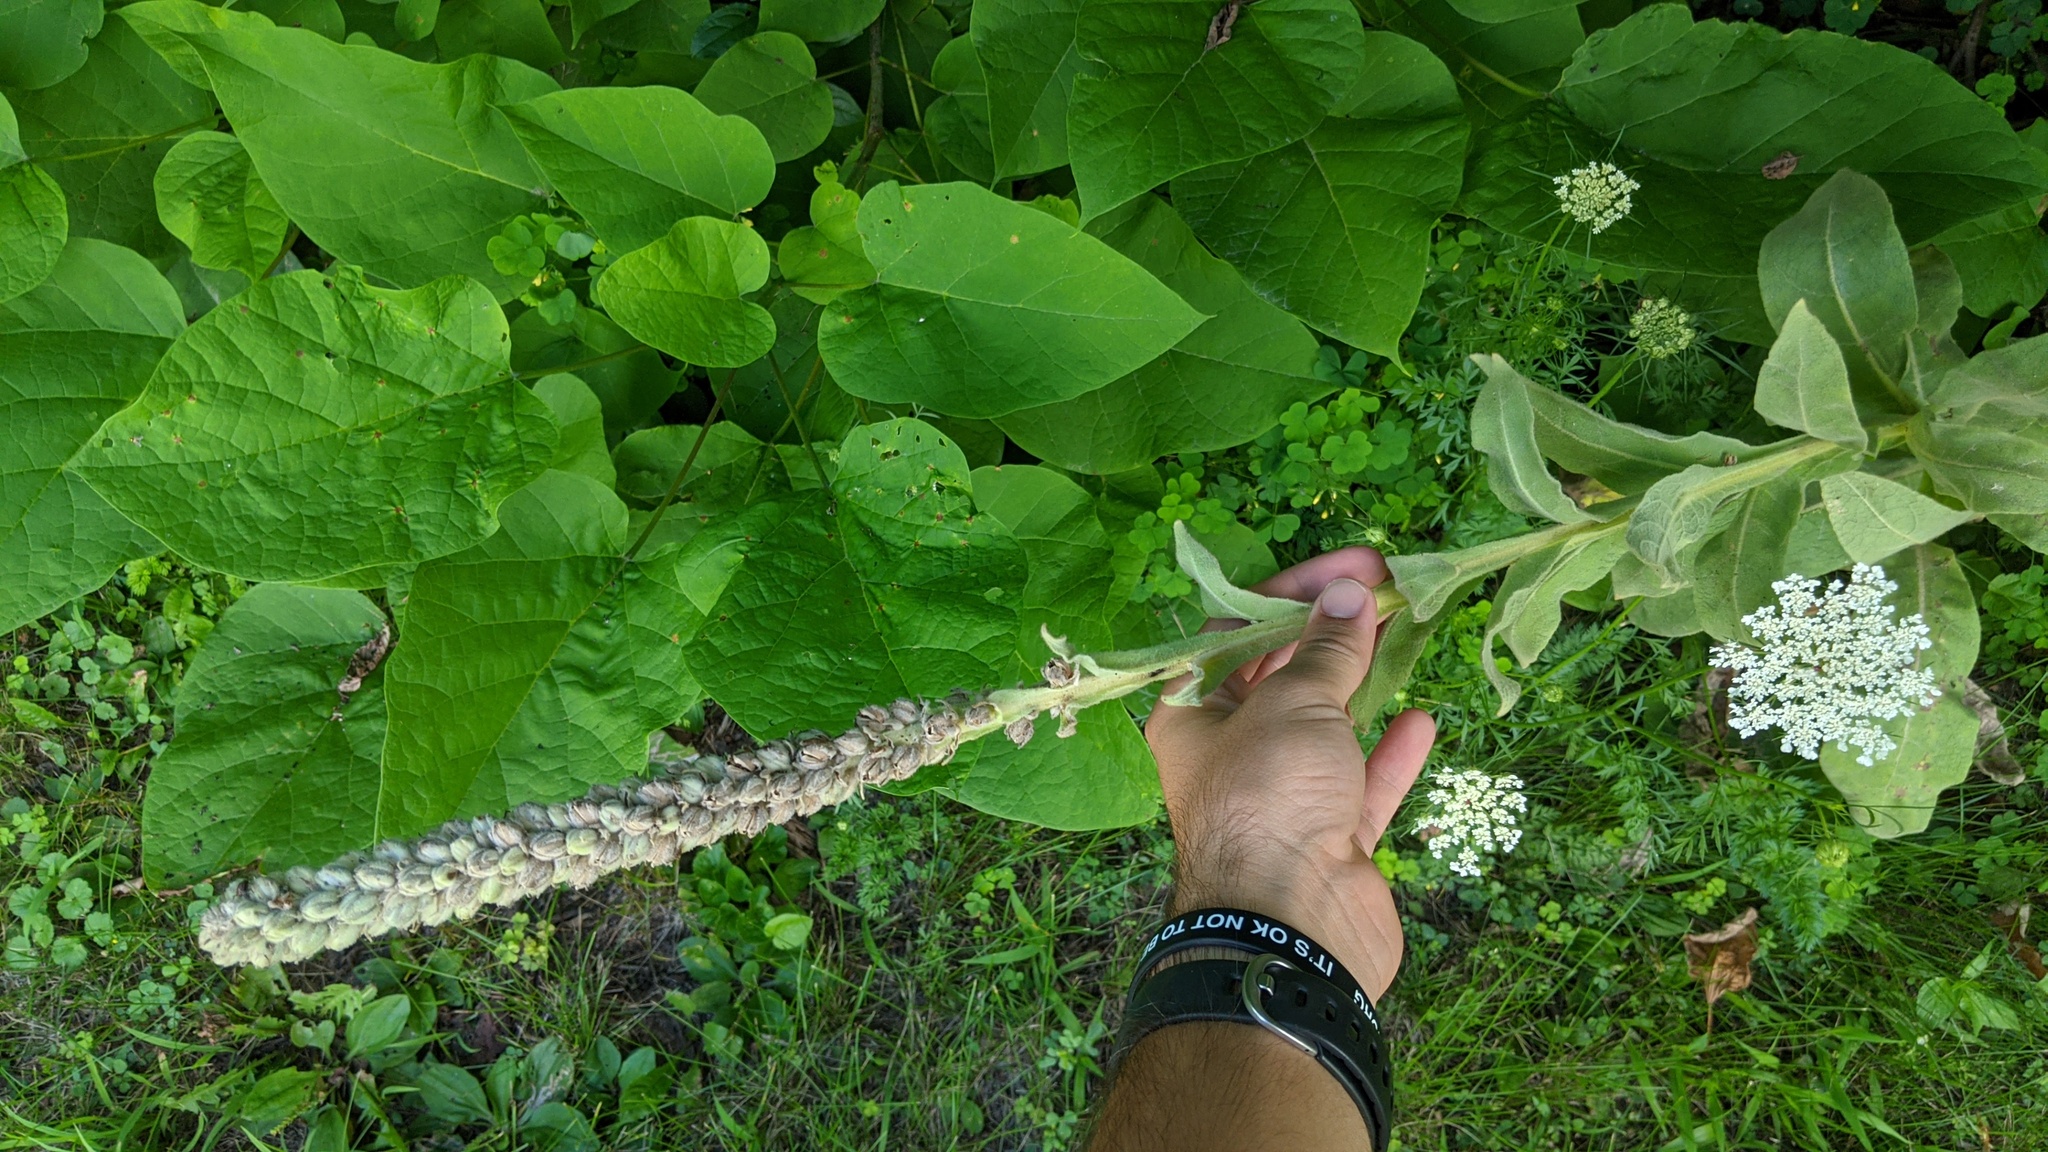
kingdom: Plantae
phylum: Tracheophyta
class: Magnoliopsida
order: Lamiales
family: Scrophulariaceae
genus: Verbascum
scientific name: Verbascum thapsus
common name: Common mullein
